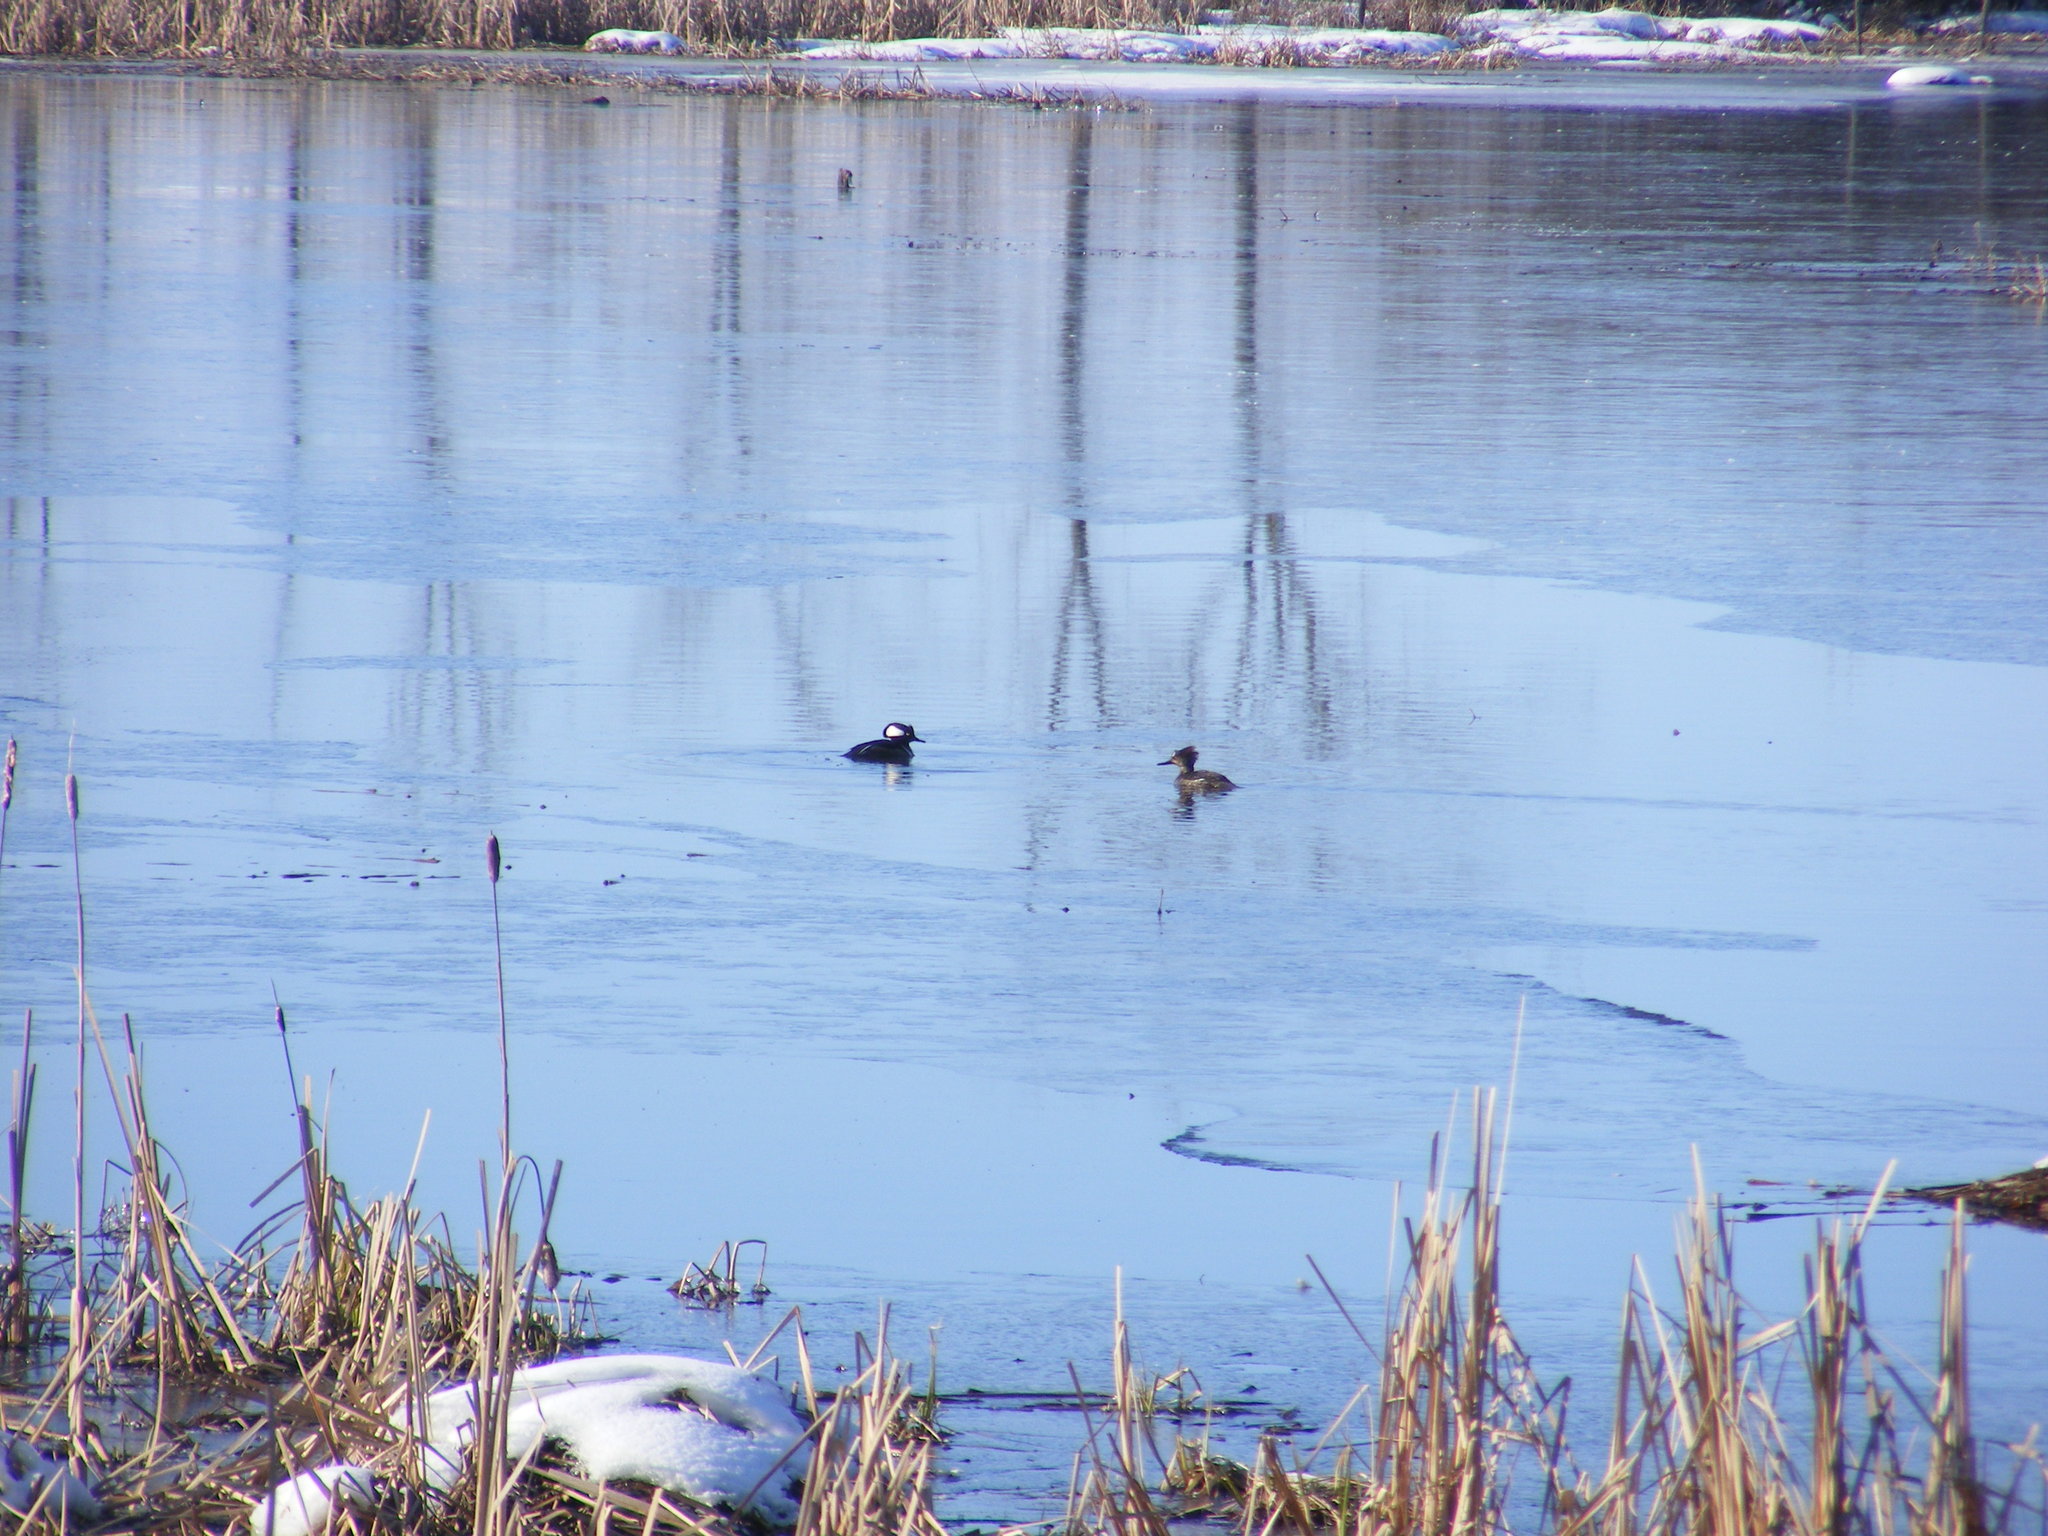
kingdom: Animalia
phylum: Chordata
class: Aves
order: Anseriformes
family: Anatidae
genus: Lophodytes
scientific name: Lophodytes cucullatus
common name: Hooded merganser
